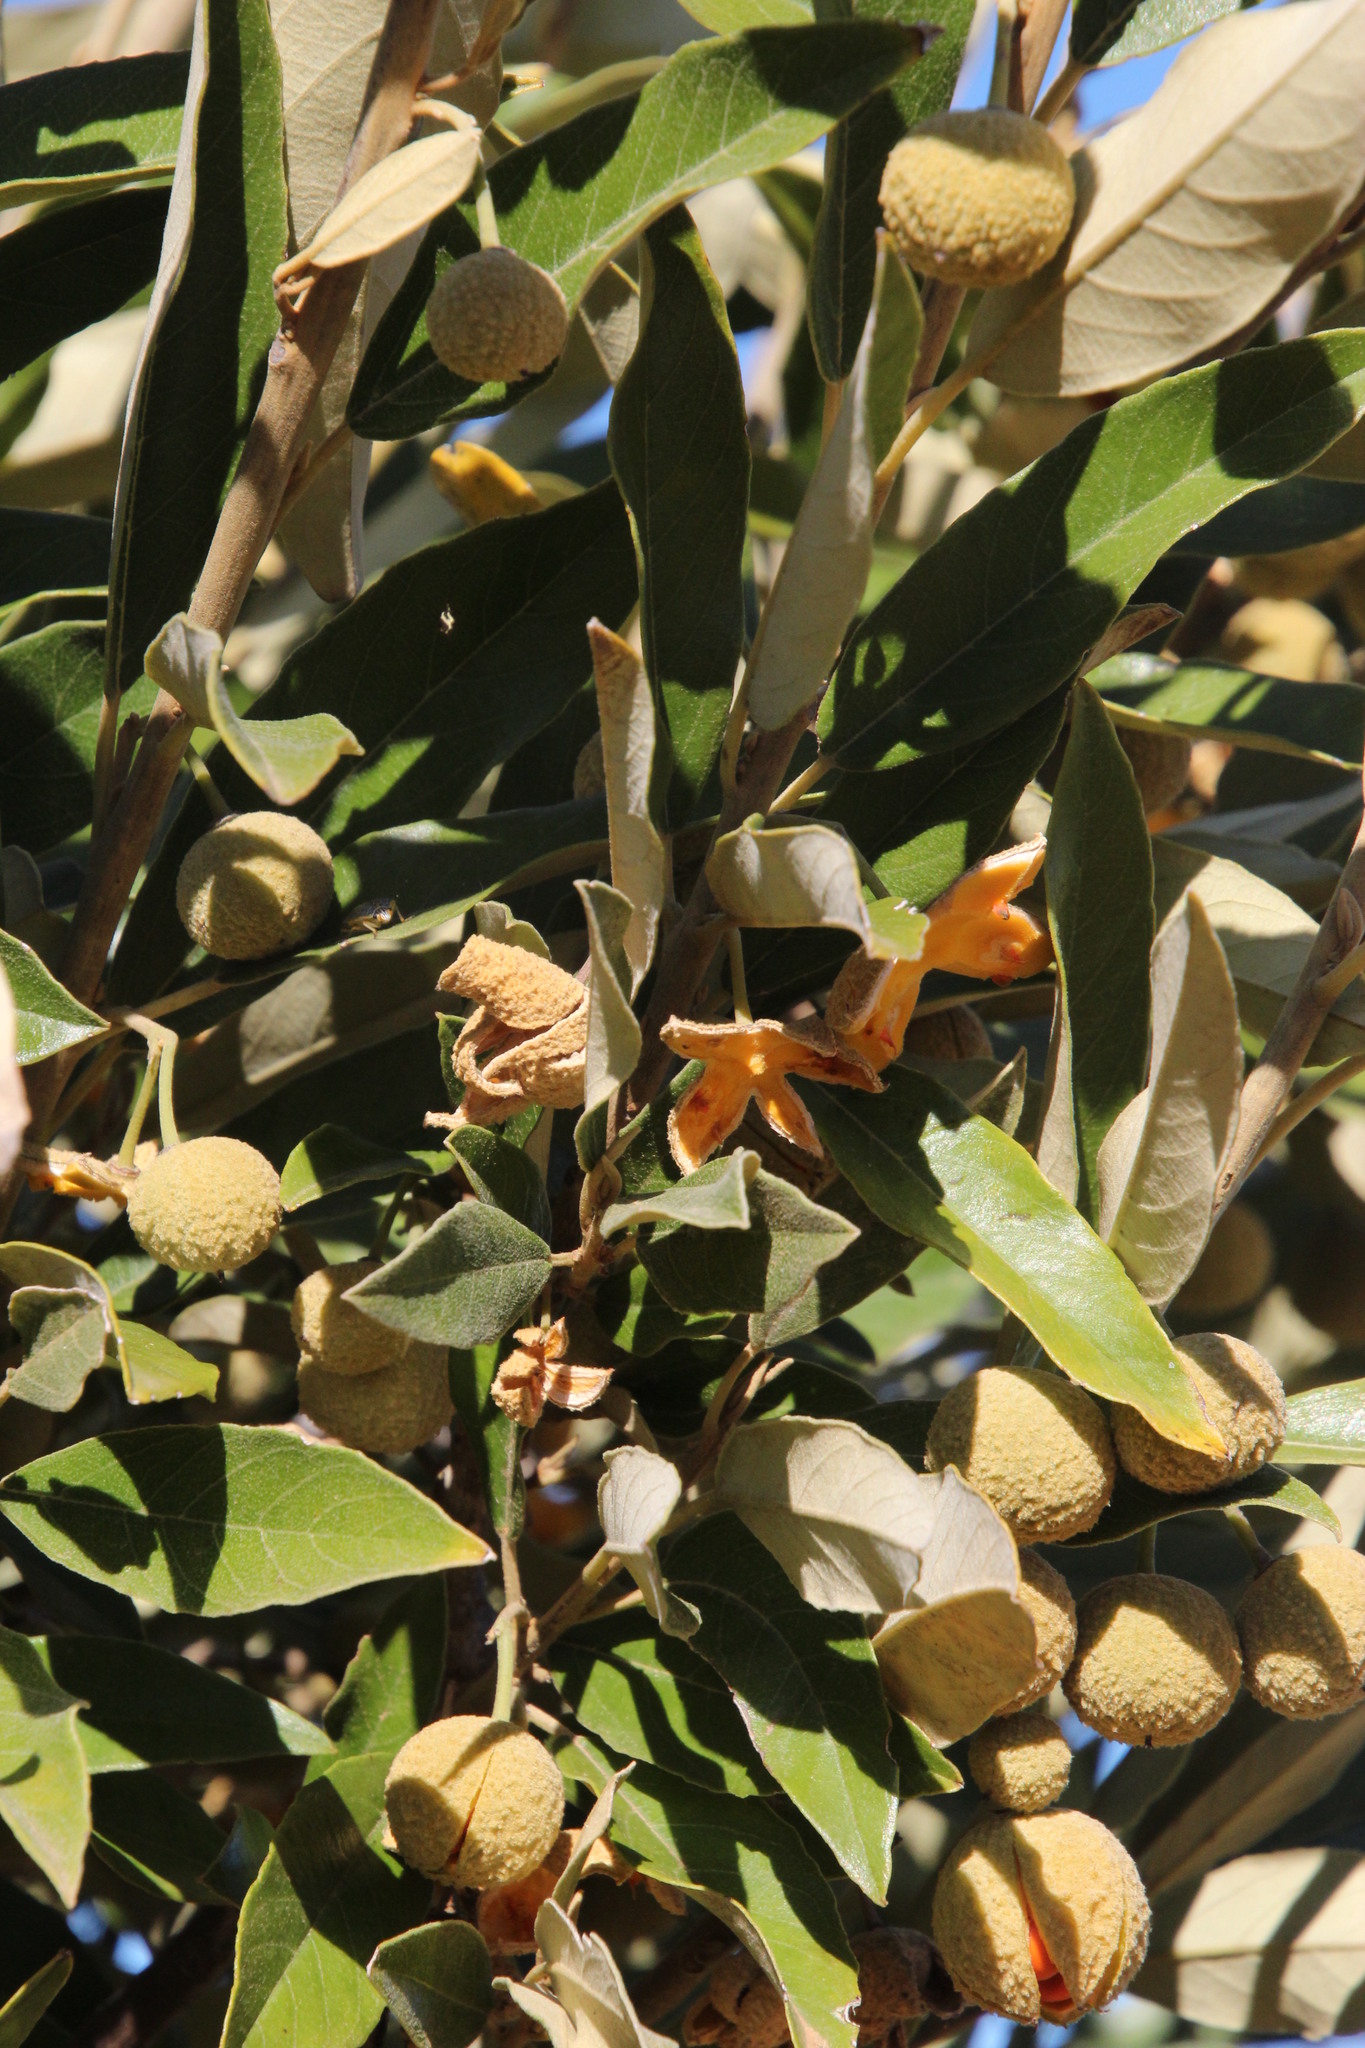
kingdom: Plantae
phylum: Tracheophyta
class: Magnoliopsida
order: Malpighiales
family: Achariaceae
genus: Kiggelaria
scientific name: Kiggelaria africana
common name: Wild peach
